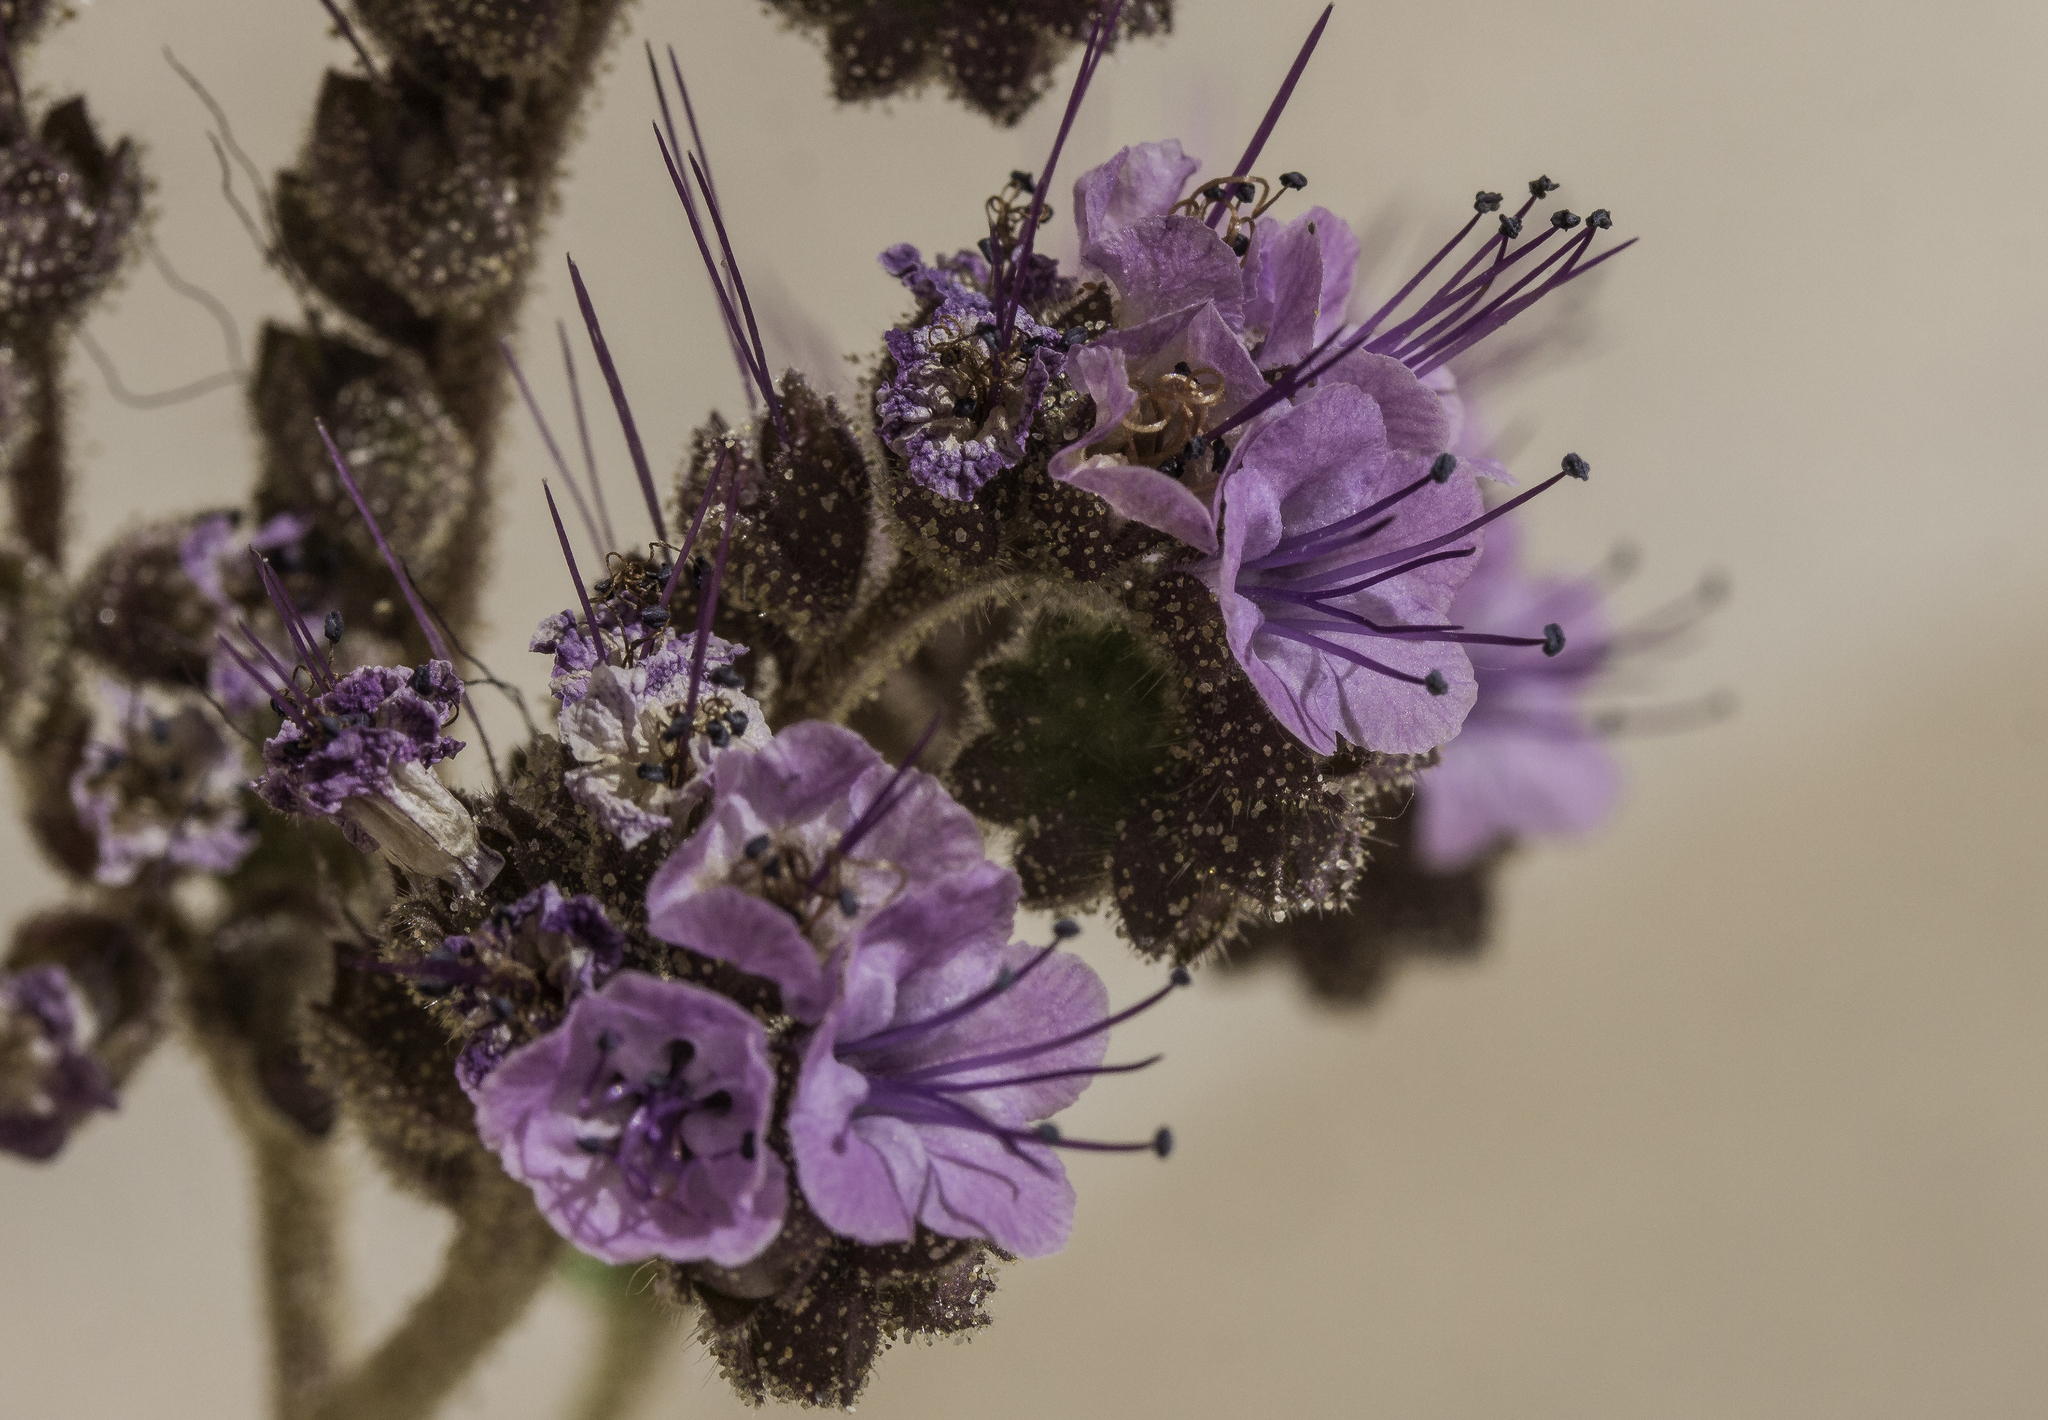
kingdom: Plantae
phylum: Tracheophyta
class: Magnoliopsida
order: Boraginales
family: Hydrophyllaceae
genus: Phacelia
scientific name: Phacelia integrifolia
